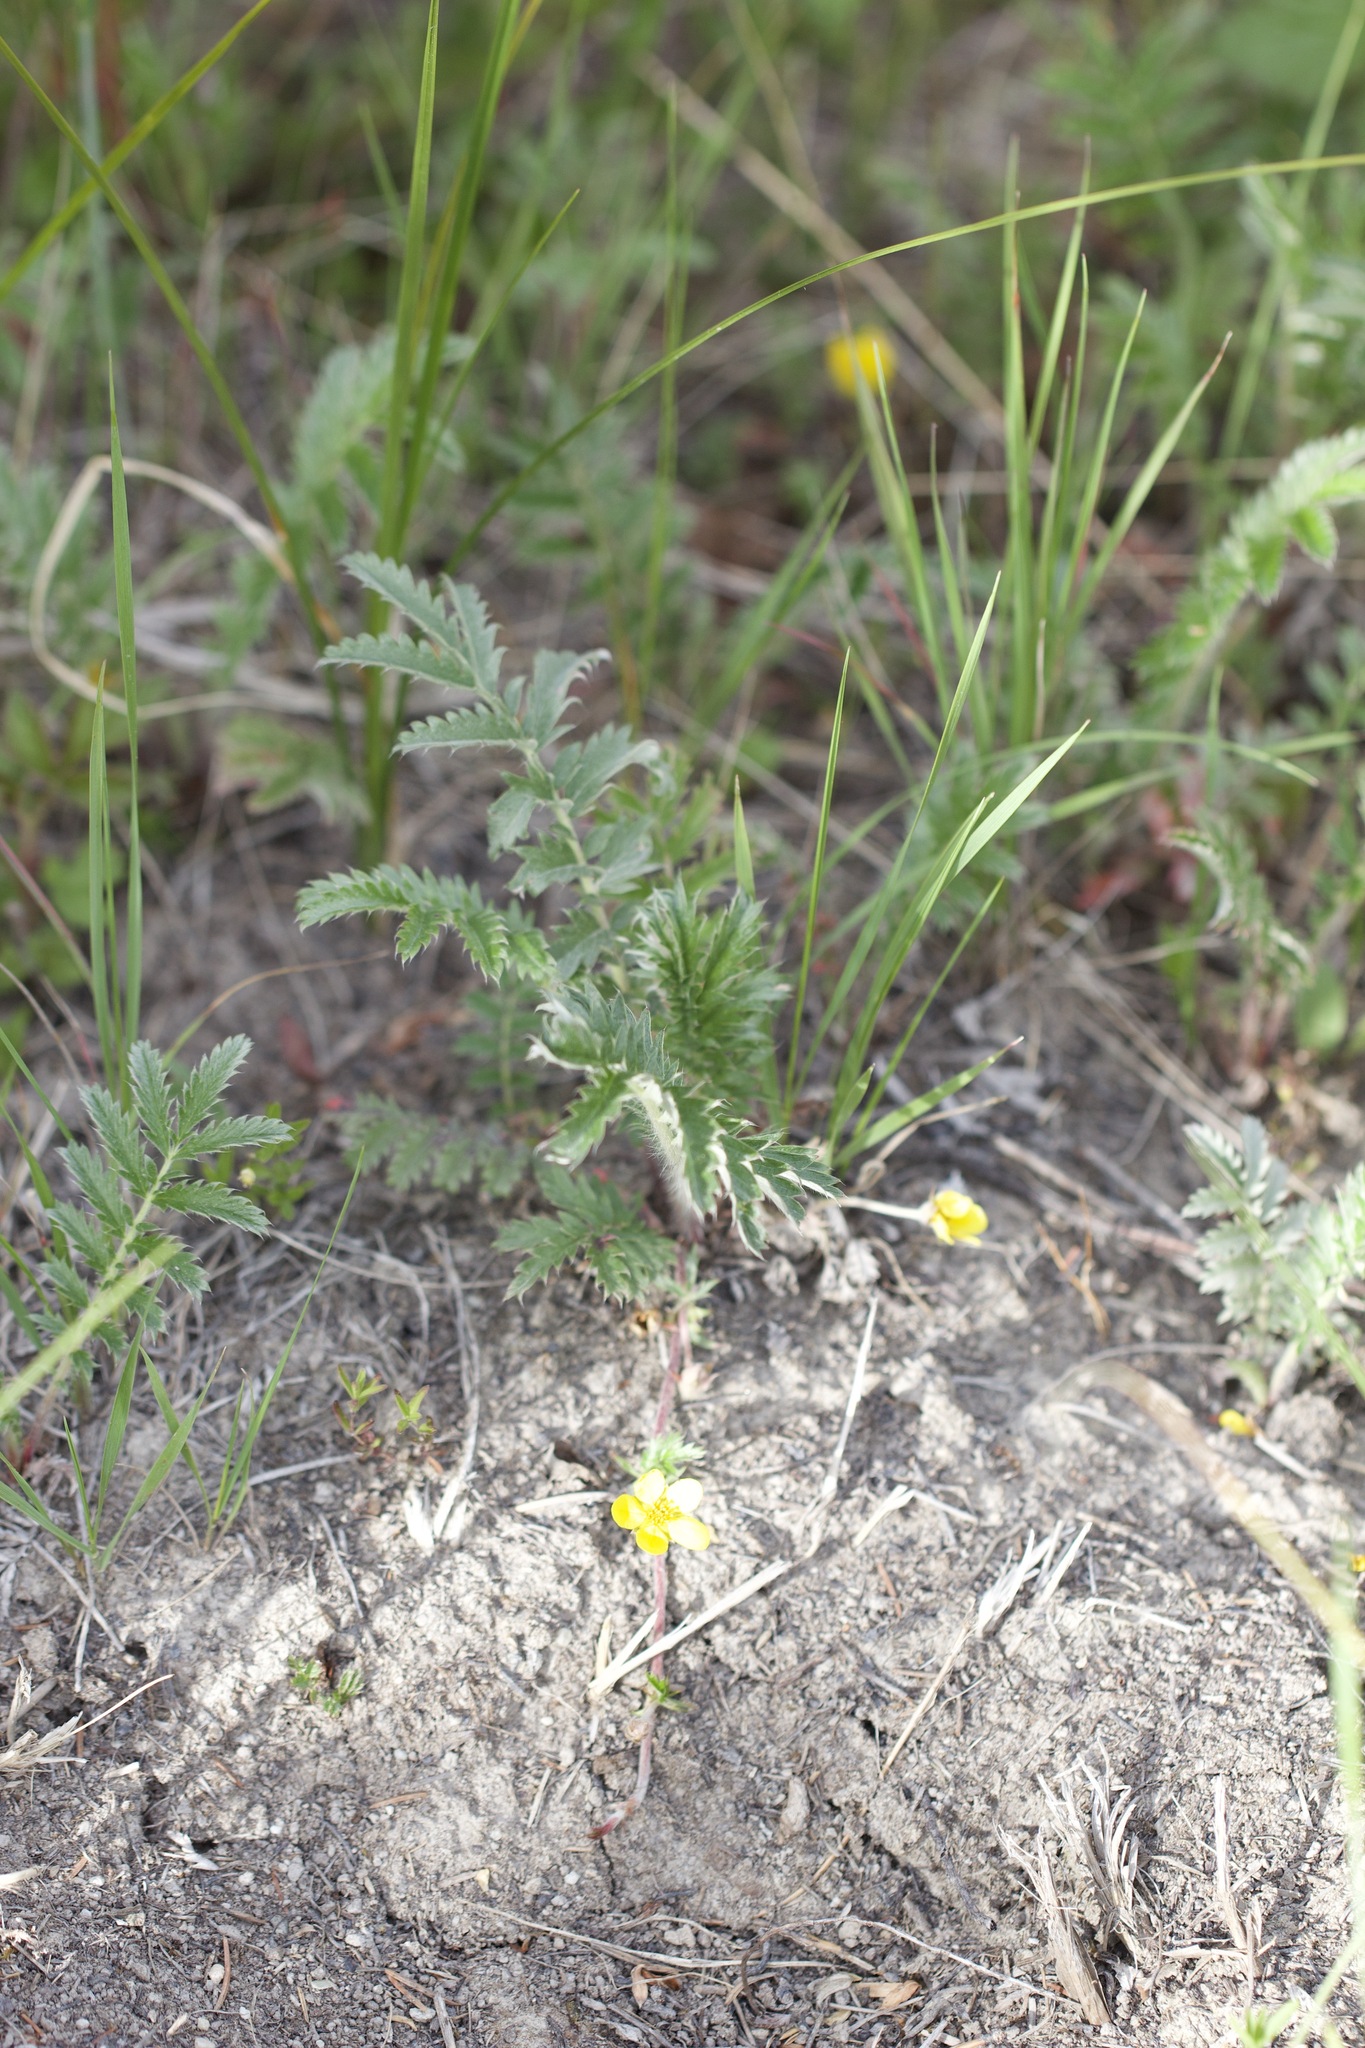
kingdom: Plantae
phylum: Tracheophyta
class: Magnoliopsida
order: Rosales
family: Rosaceae
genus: Argentina
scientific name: Argentina anserina
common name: Common silverweed
